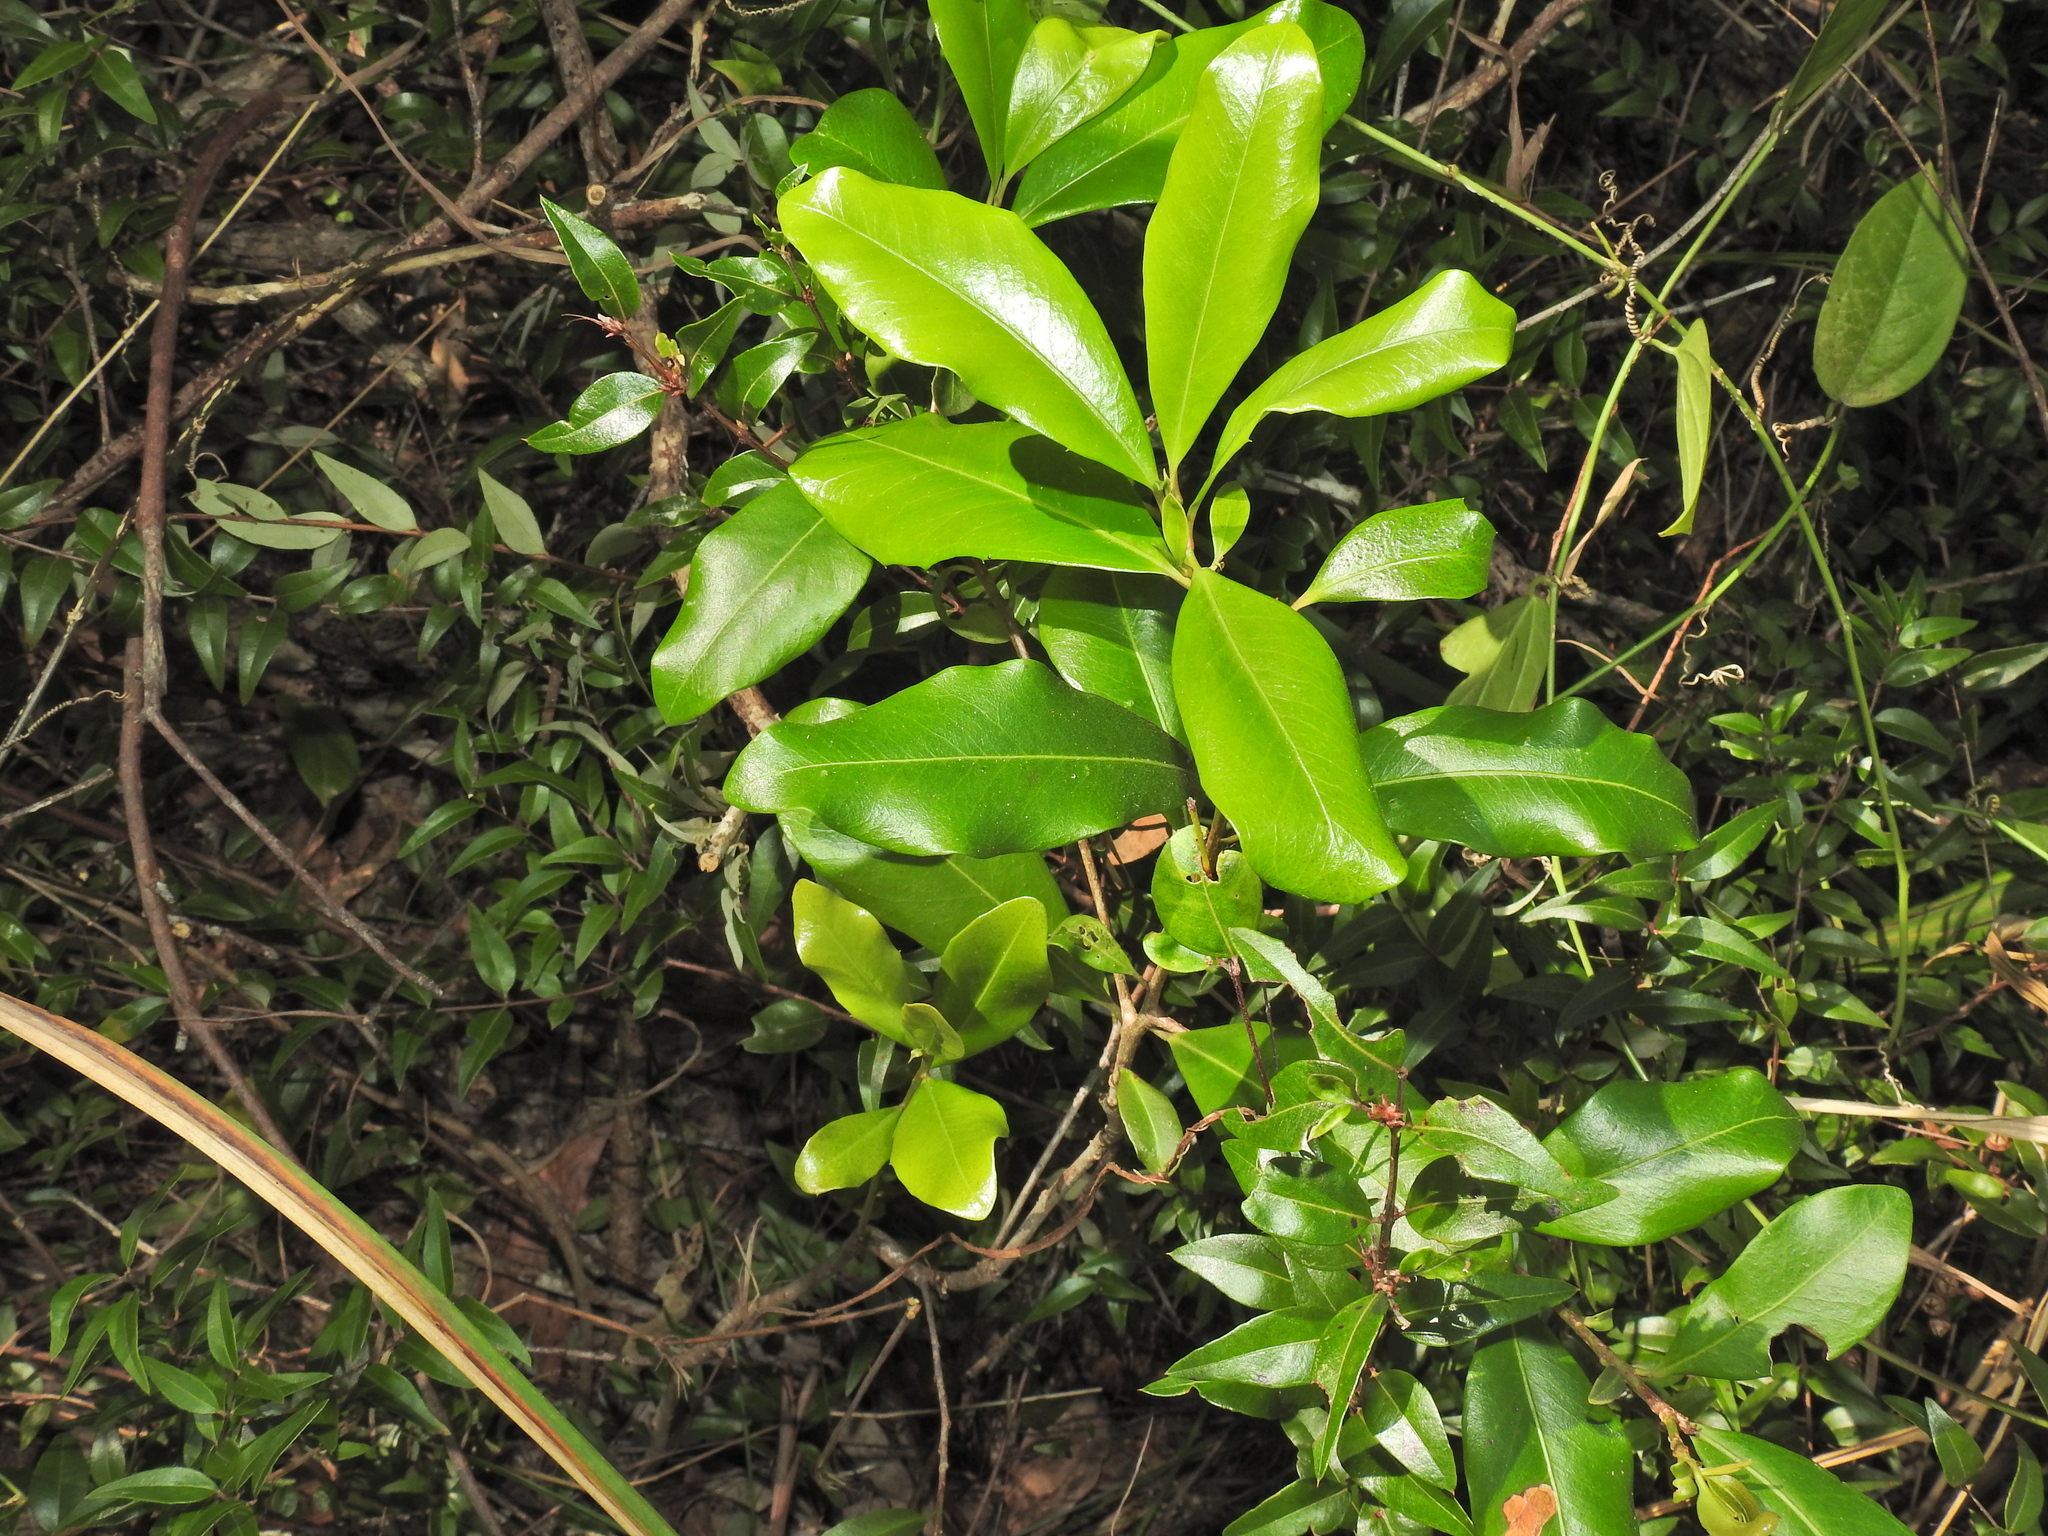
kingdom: Plantae
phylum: Tracheophyta
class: Magnoliopsida
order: Ericales
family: Primulaceae
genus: Myrsine
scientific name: Myrsine variabilis
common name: Brush muttonwood
